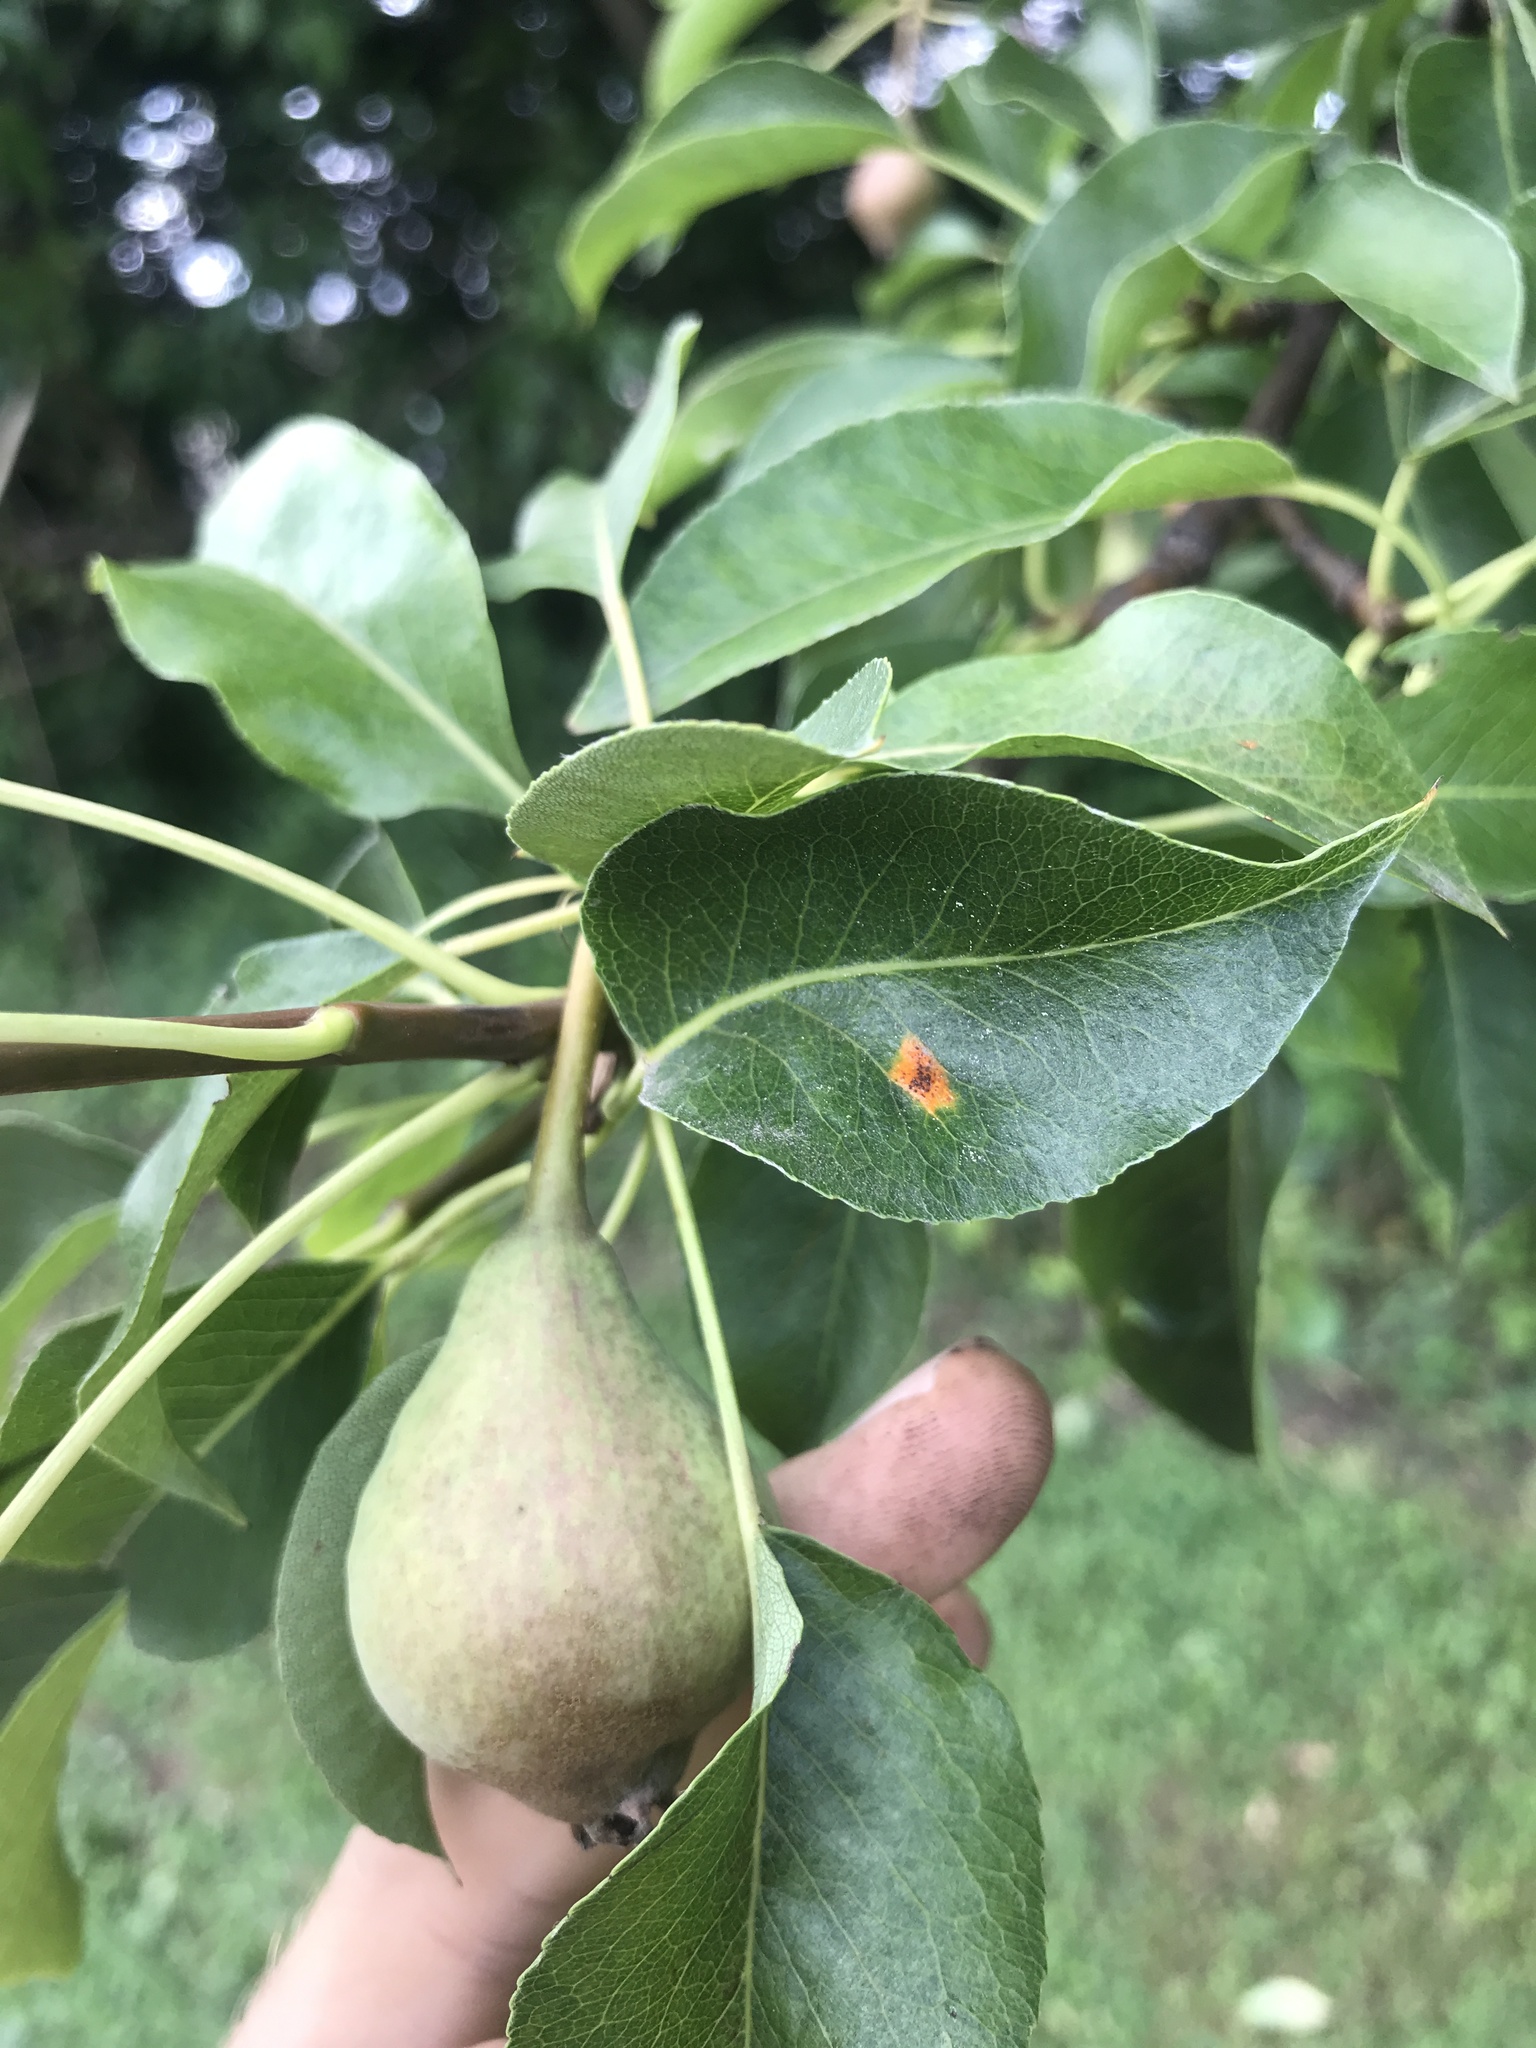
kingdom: Fungi
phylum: Basidiomycota
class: Pucciniomycetes
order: Pucciniales
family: Gymnosporangiaceae
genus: Gymnosporangium
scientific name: Gymnosporangium sabinae
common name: Pear trellis rust fungus
